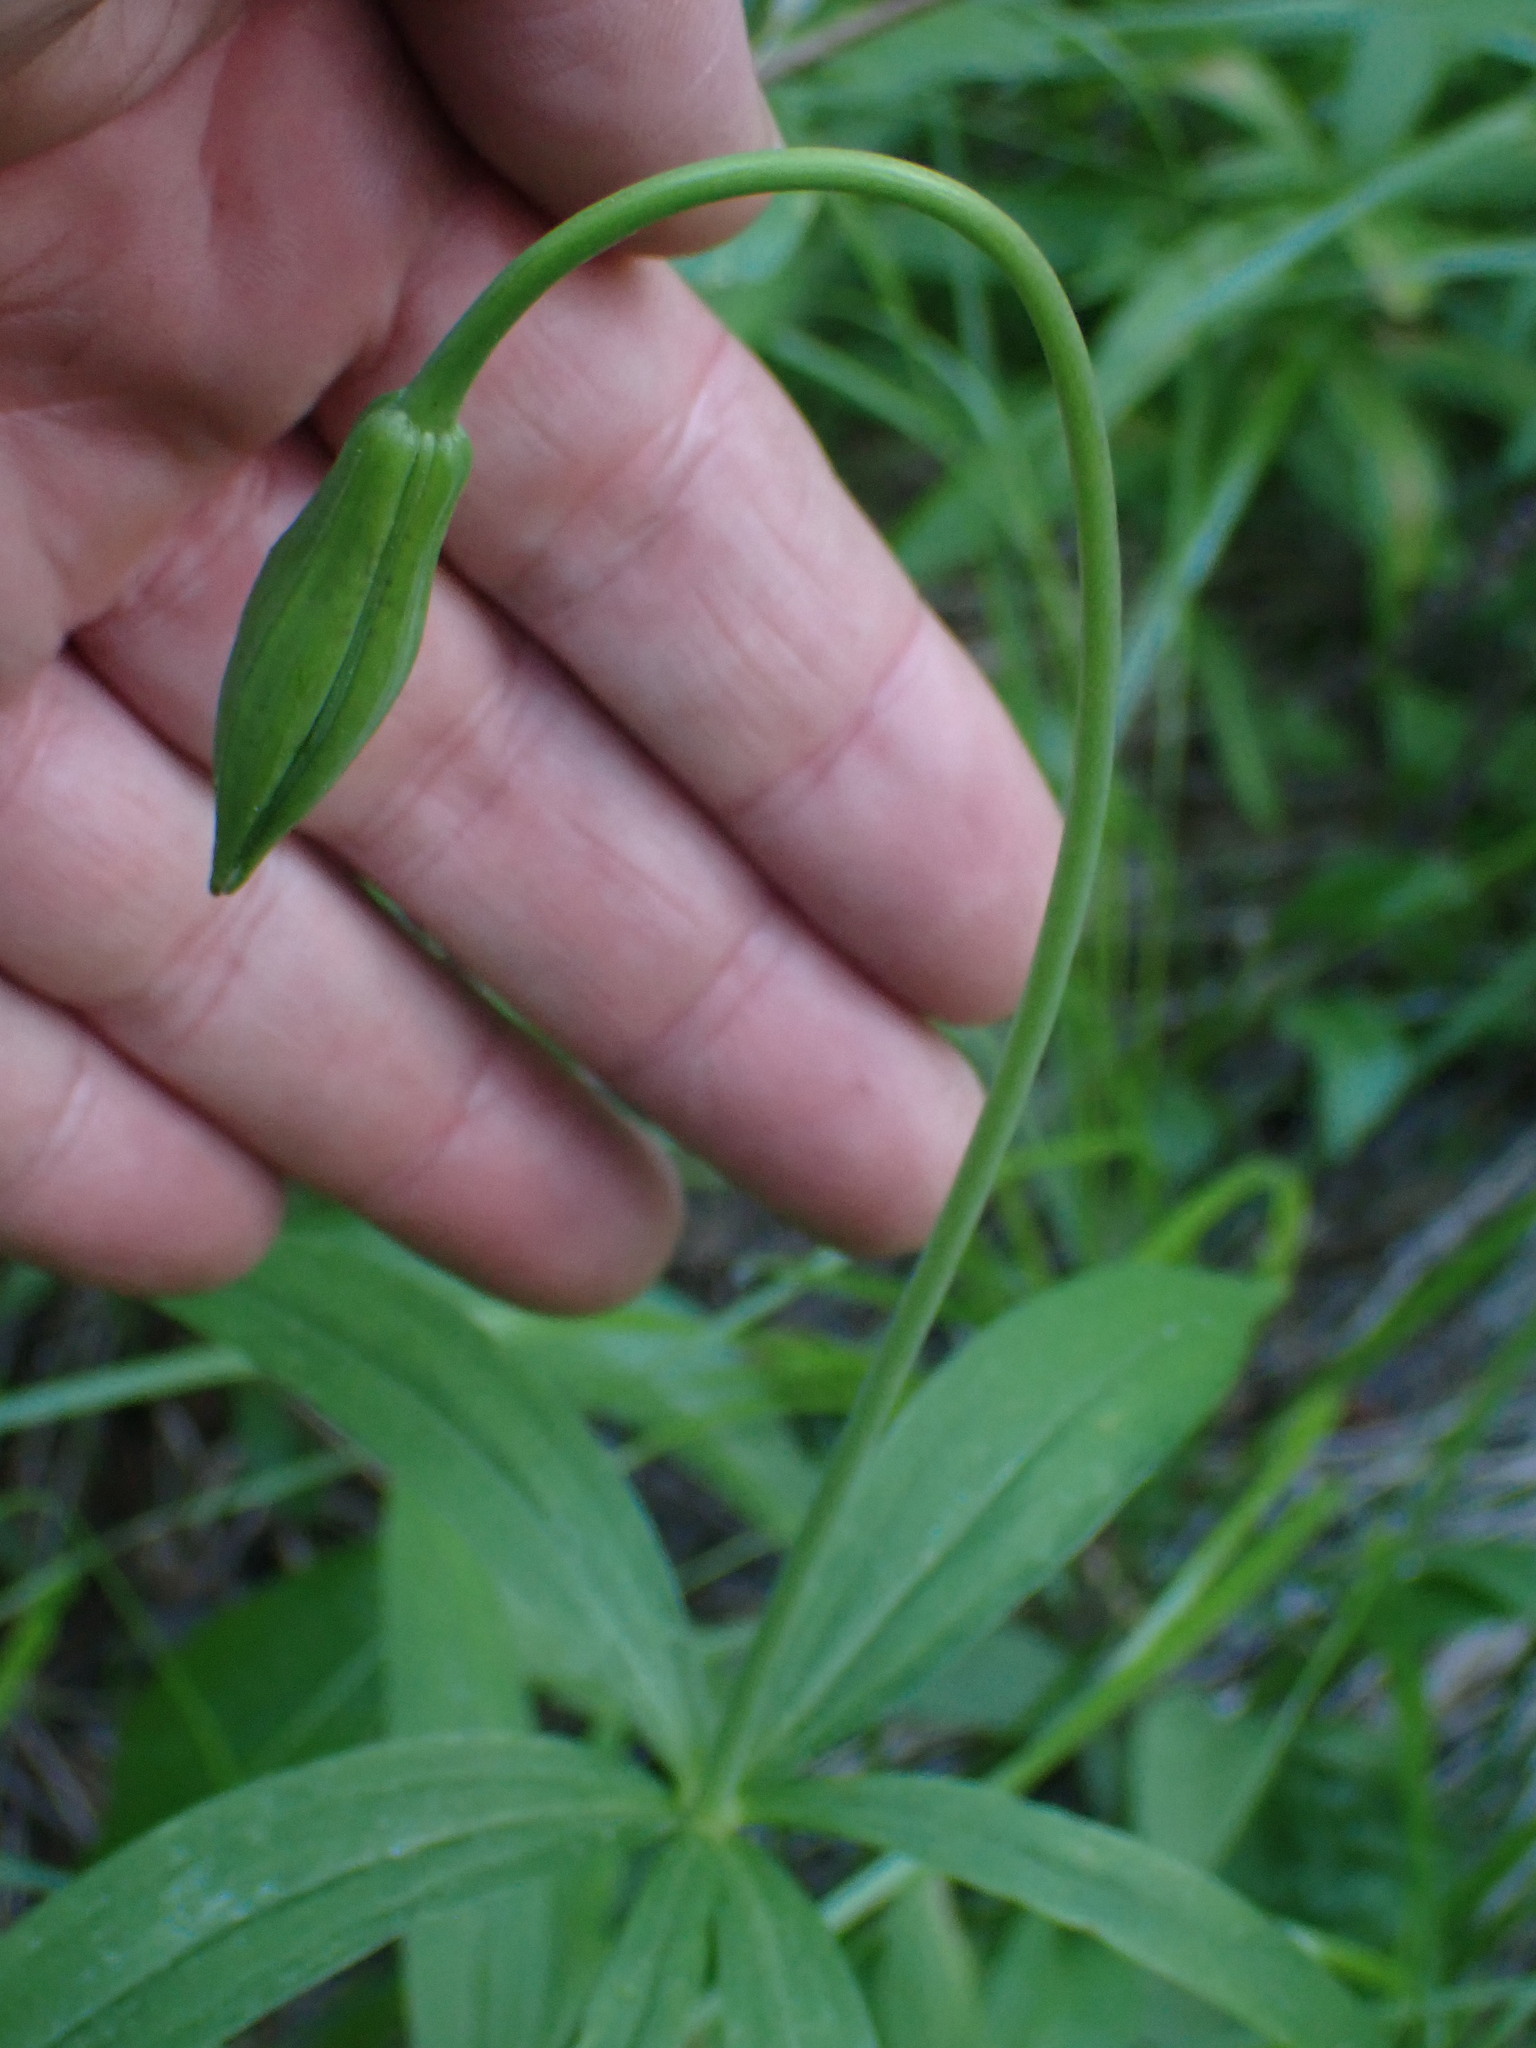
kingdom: Plantae
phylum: Tracheophyta
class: Liliopsida
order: Liliales
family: Liliaceae
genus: Lilium
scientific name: Lilium columbianum
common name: Columbia lily
